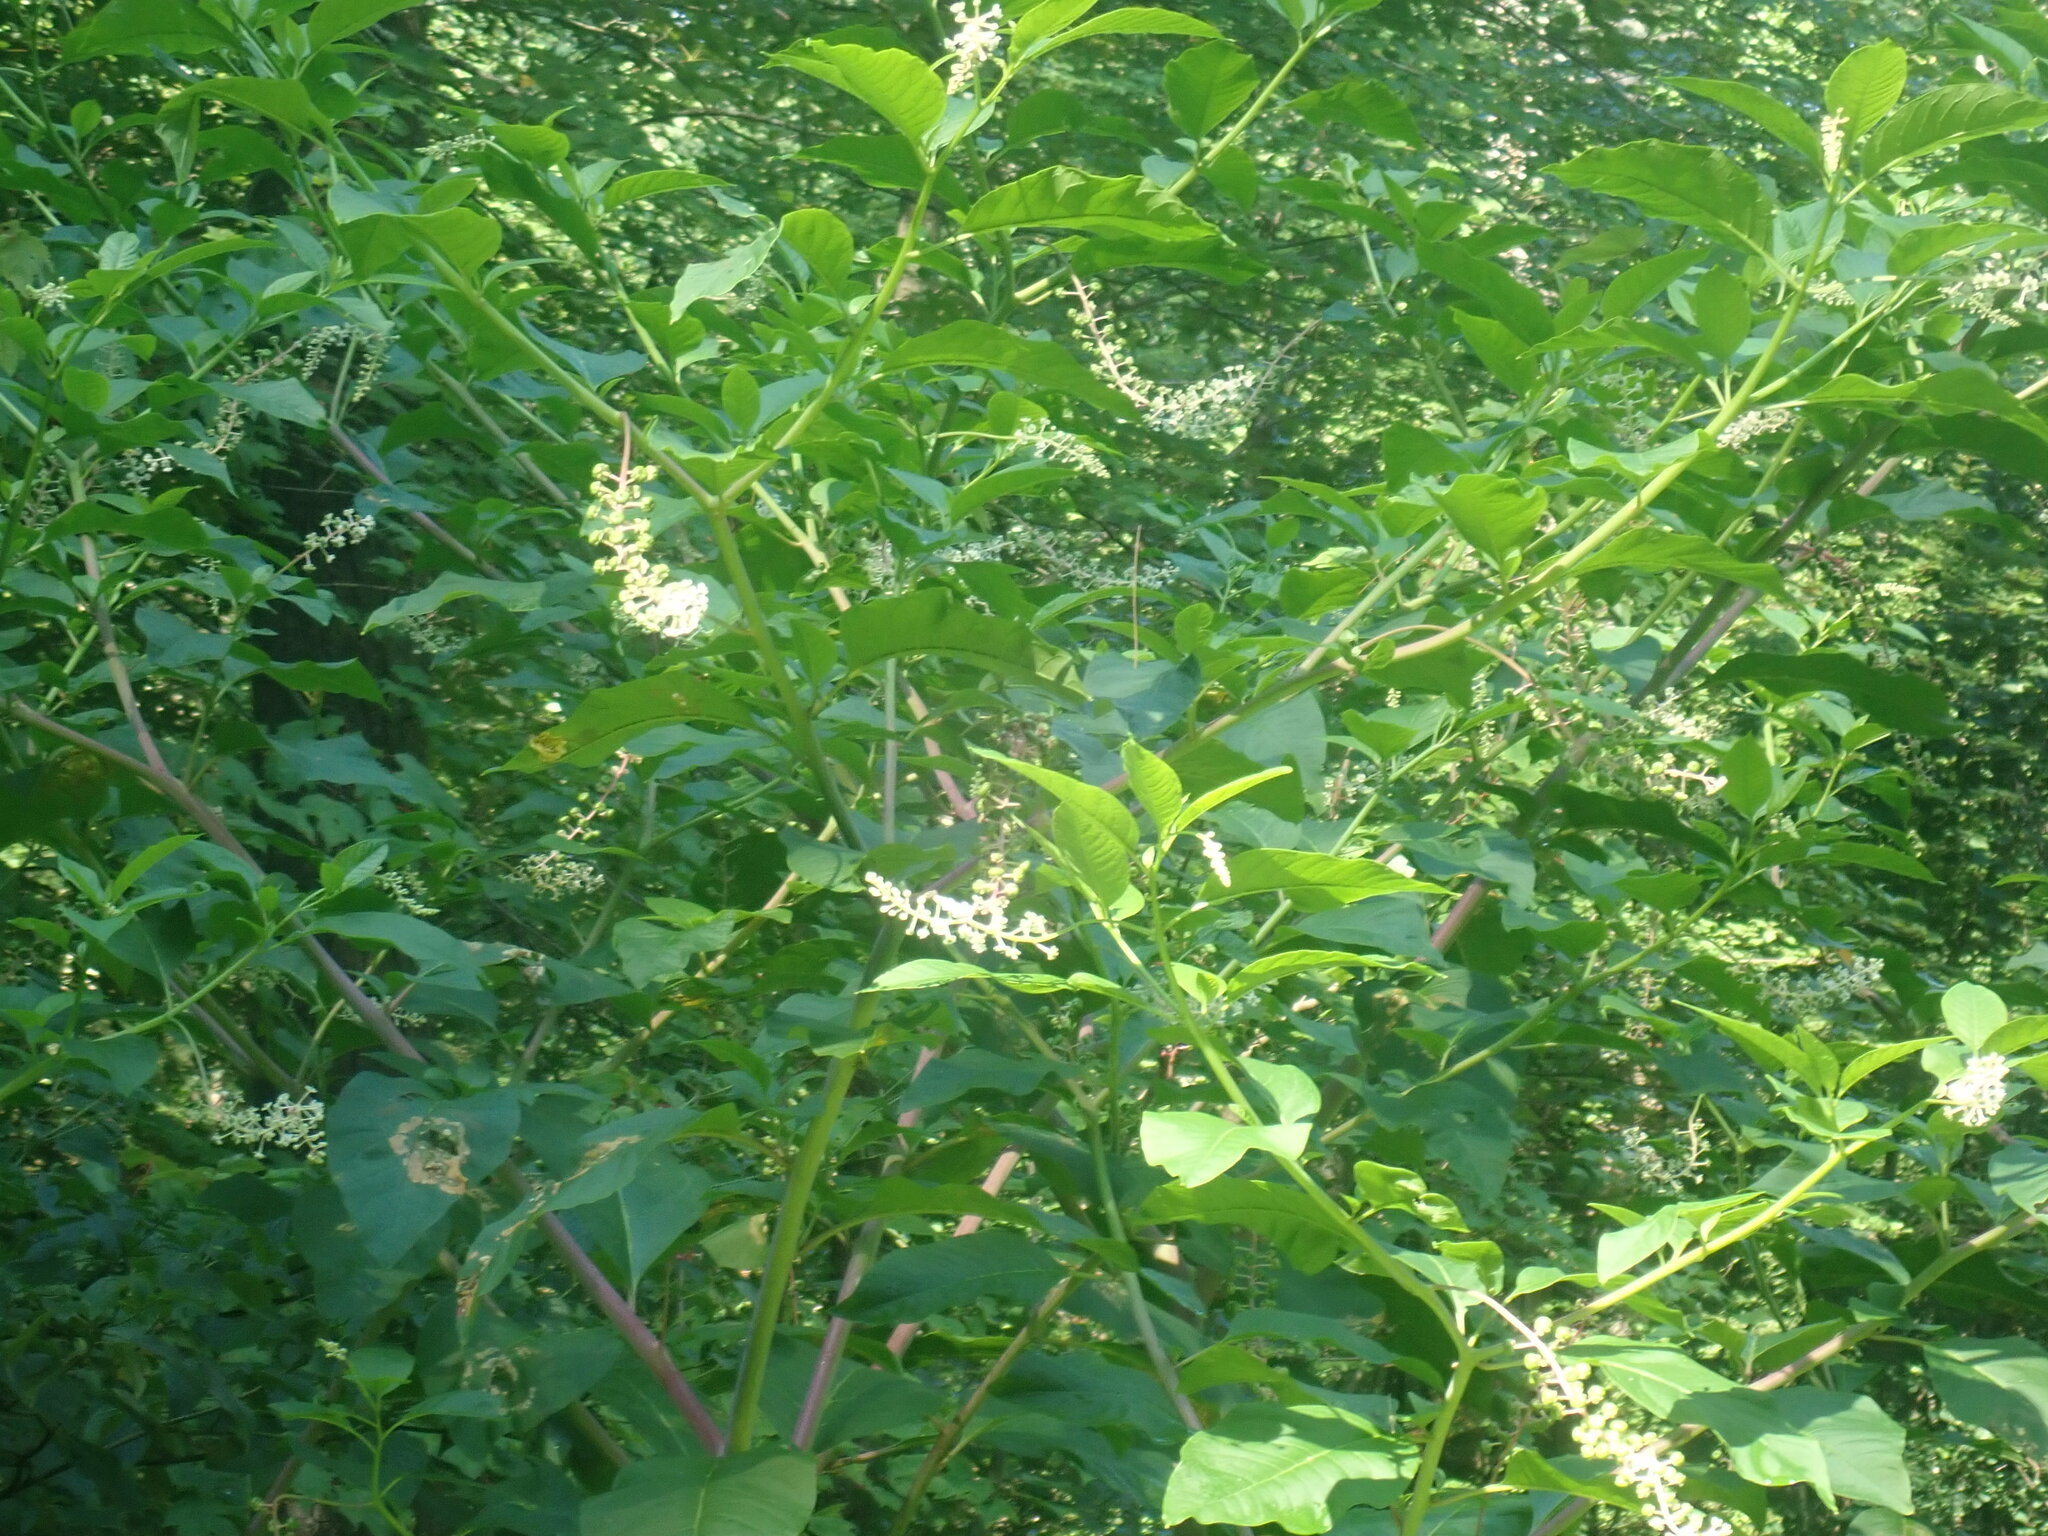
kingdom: Plantae
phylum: Tracheophyta
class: Magnoliopsida
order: Caryophyllales
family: Phytolaccaceae
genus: Phytolacca
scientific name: Phytolacca americana
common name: American pokeweed
